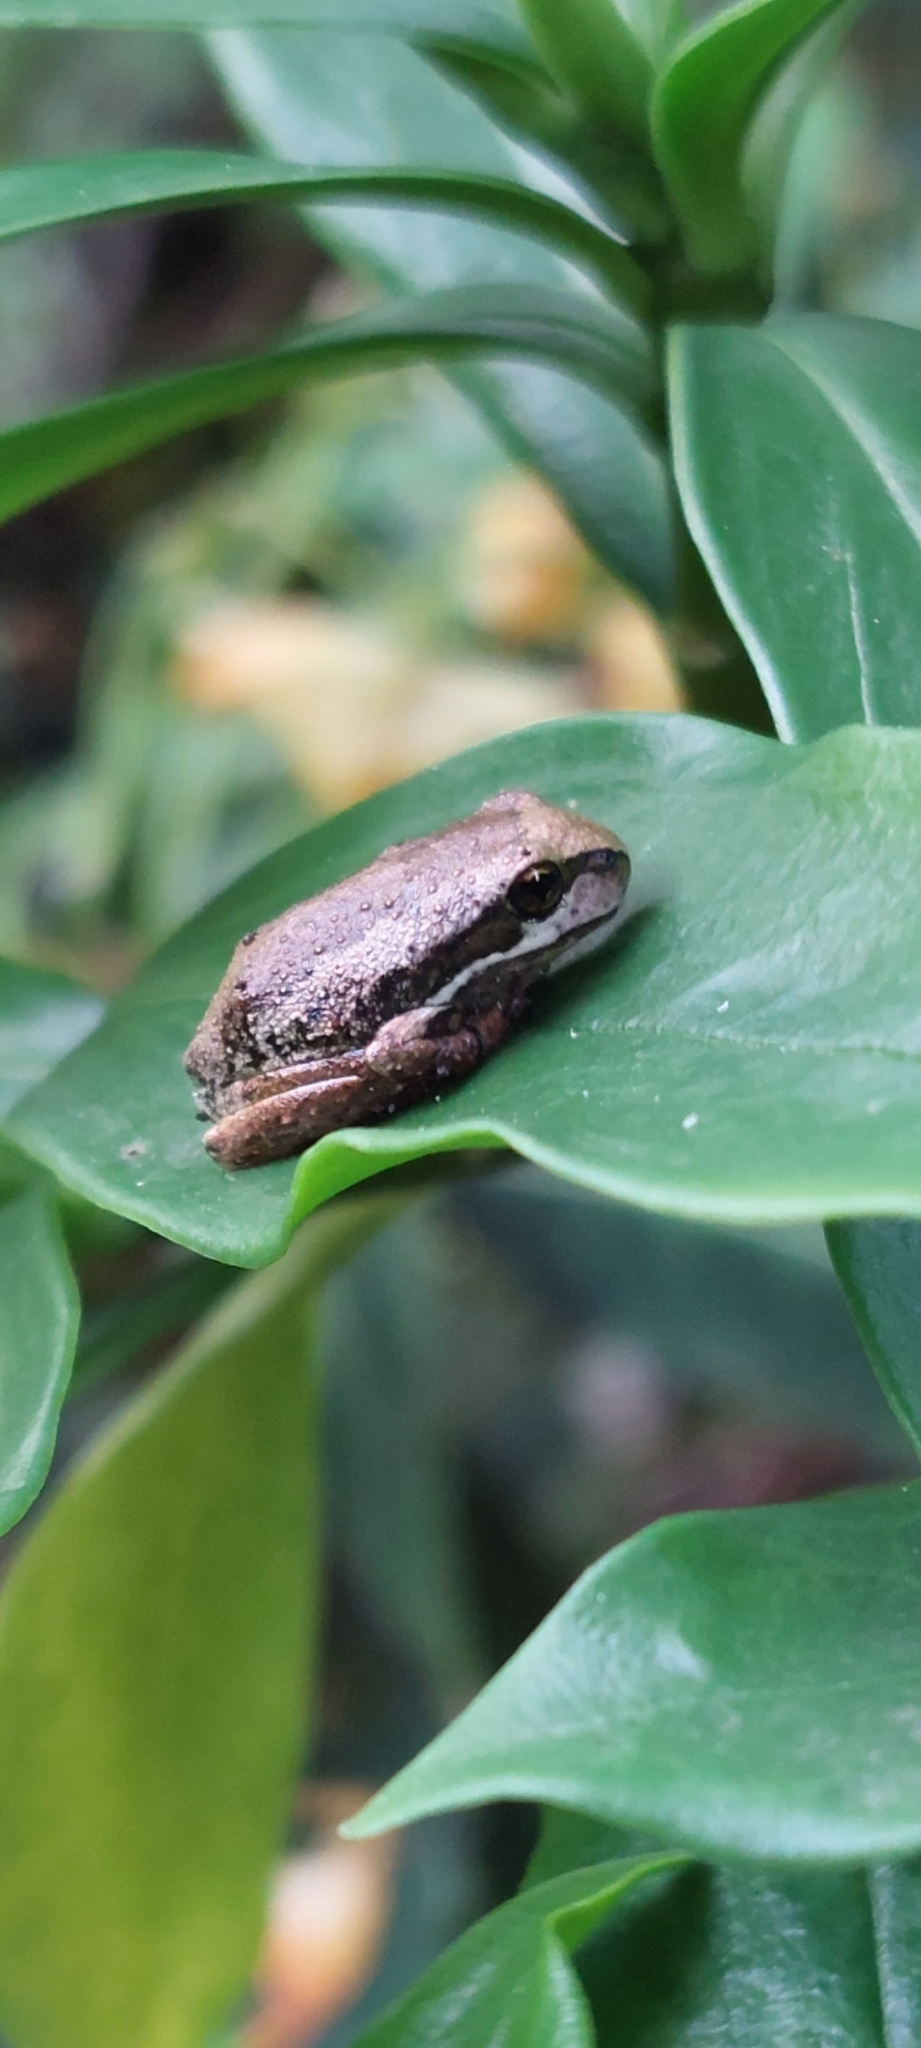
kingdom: Animalia
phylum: Chordata
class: Amphibia
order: Anura
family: Pelodryadidae
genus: Litoria
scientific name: Litoria ewingii
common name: Southern brown tree frog
